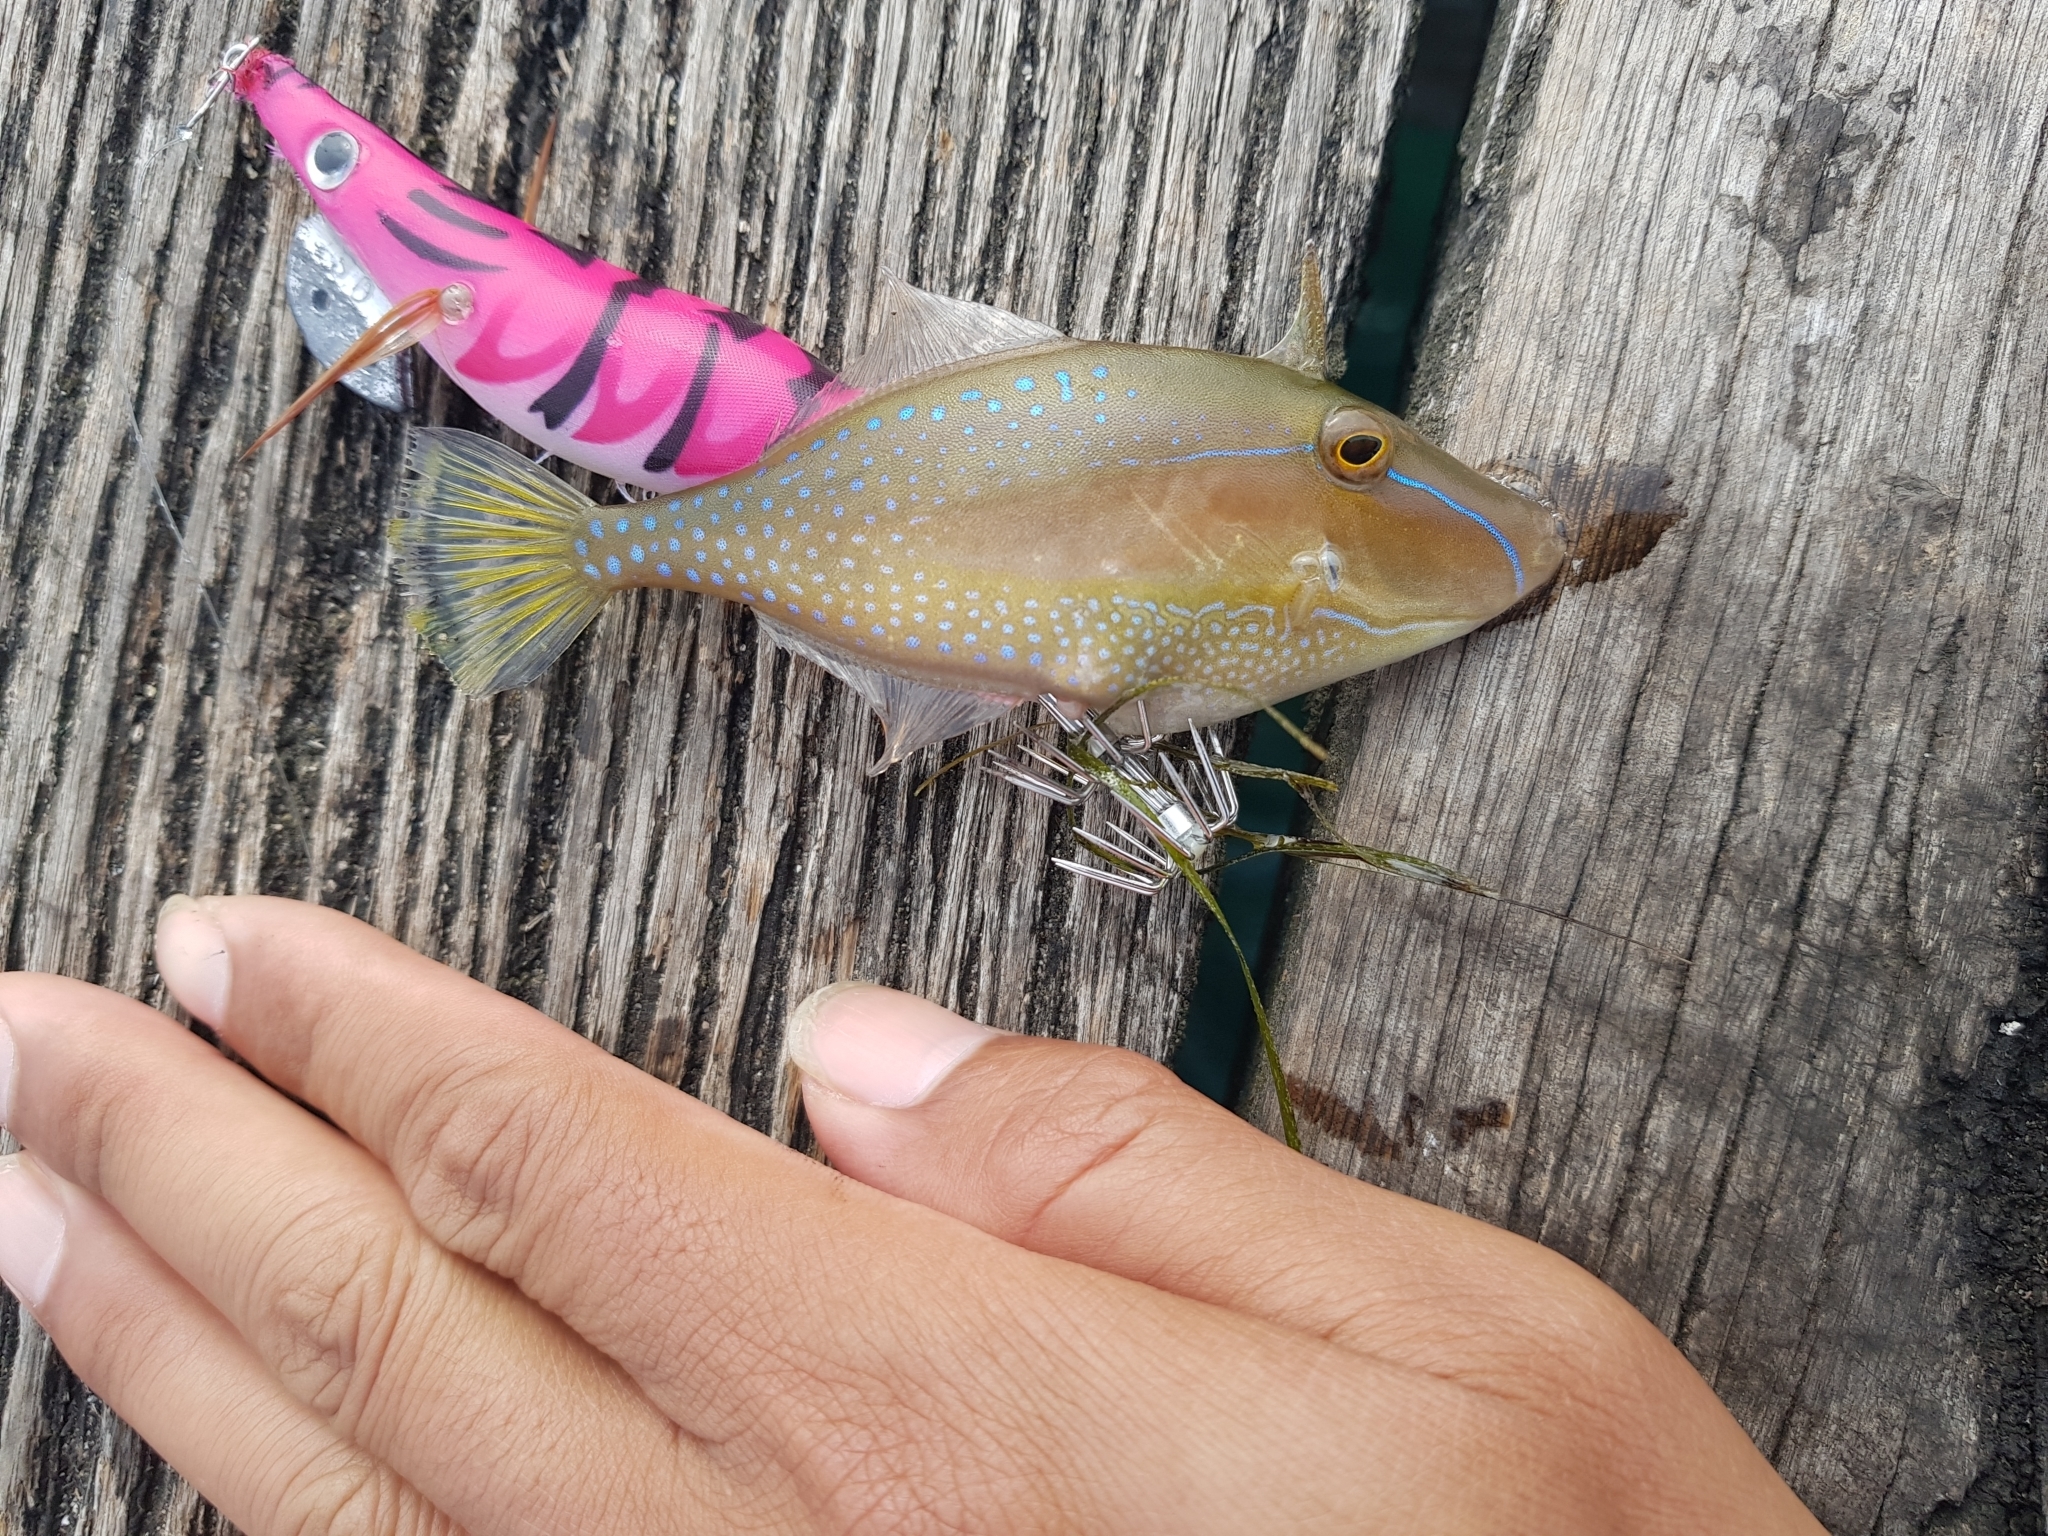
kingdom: Animalia
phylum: Chordata
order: Tetraodontiformes
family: Monacanthidae
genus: Acanthaluteres
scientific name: Acanthaluteres spilomelanurus
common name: Bridled leatherjacket
